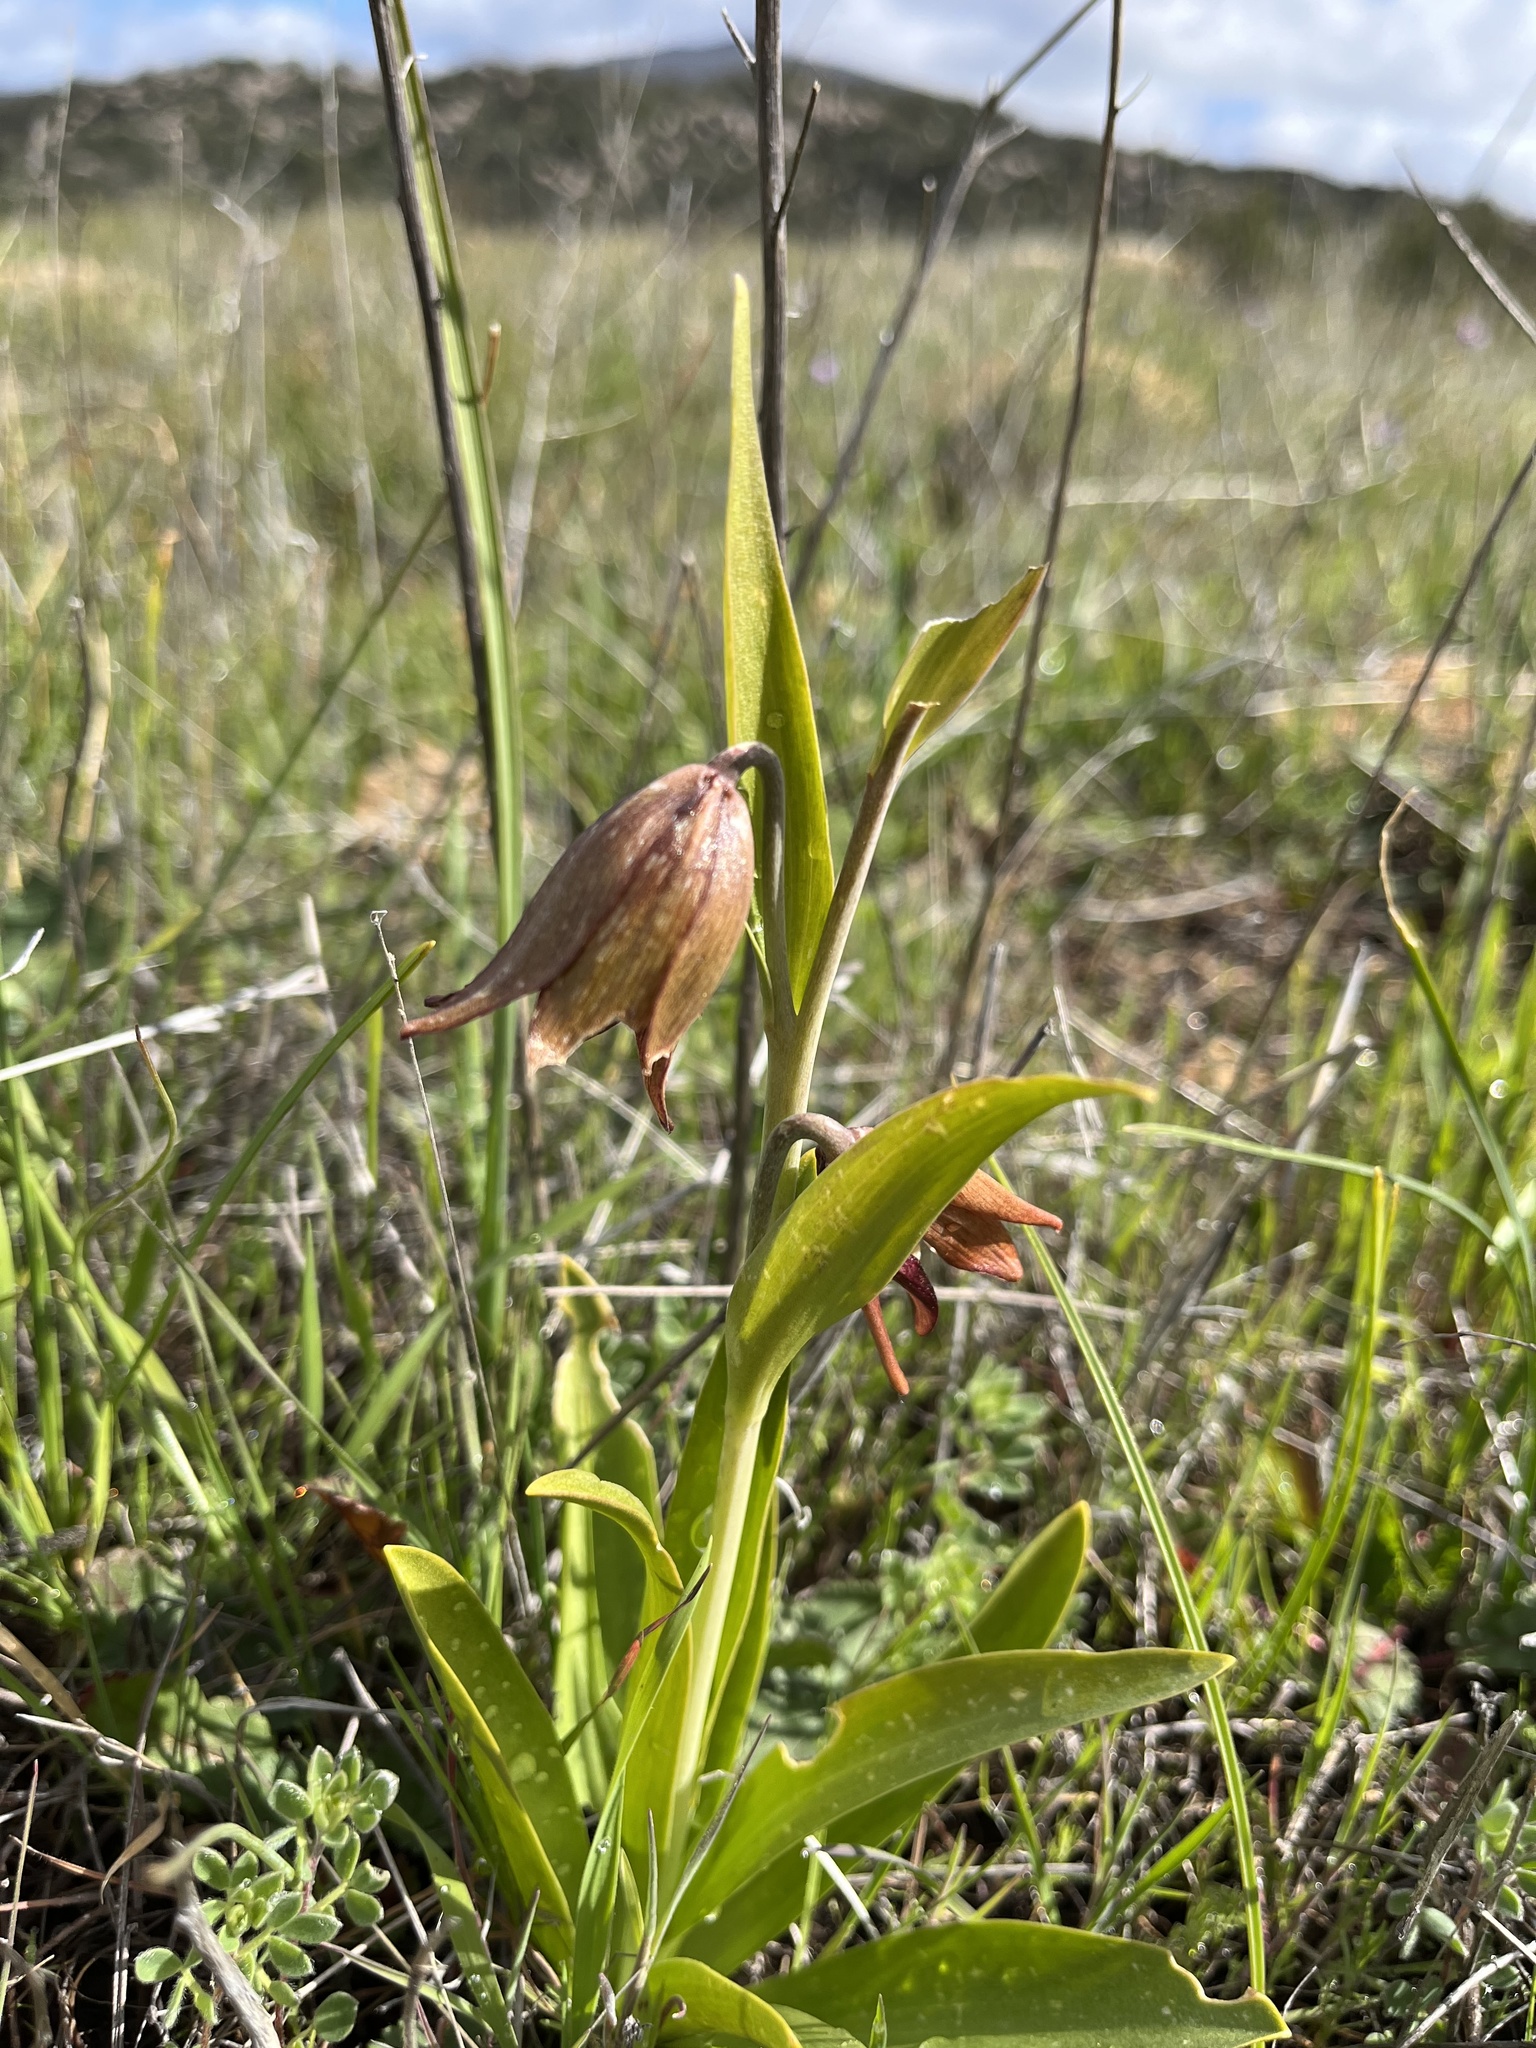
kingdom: Plantae
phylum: Tracheophyta
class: Liliopsida
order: Liliales
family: Liliaceae
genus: Fritillaria
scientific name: Fritillaria biflora
